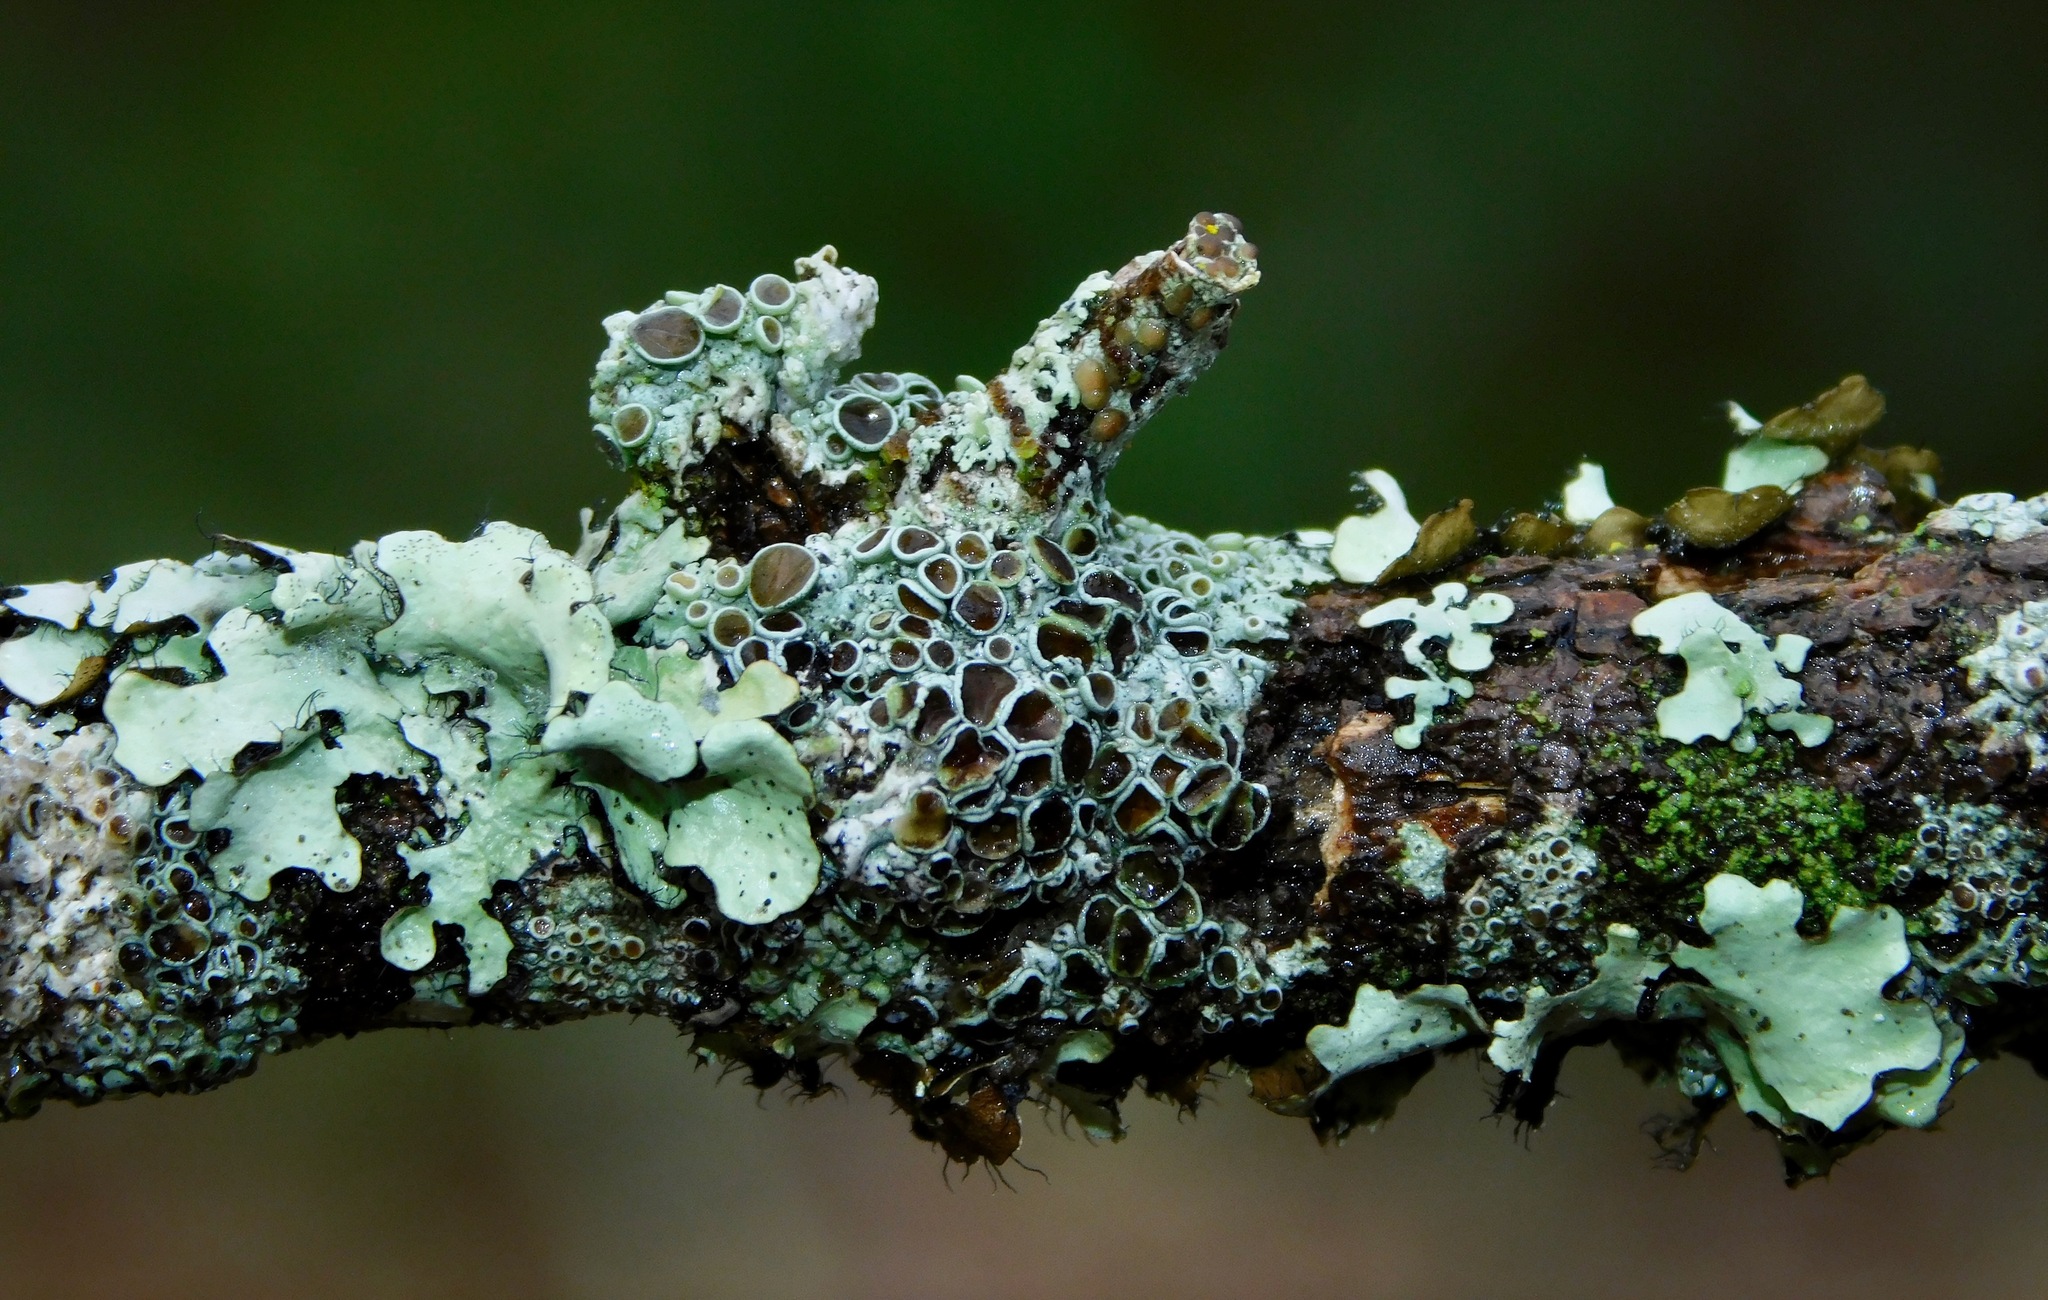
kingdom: Fungi
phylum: Ascomycota
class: Lecanoromycetes
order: Caliciales
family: Physciaceae
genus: Physcia
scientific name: Physcia pumilior
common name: Lesser gray legs
